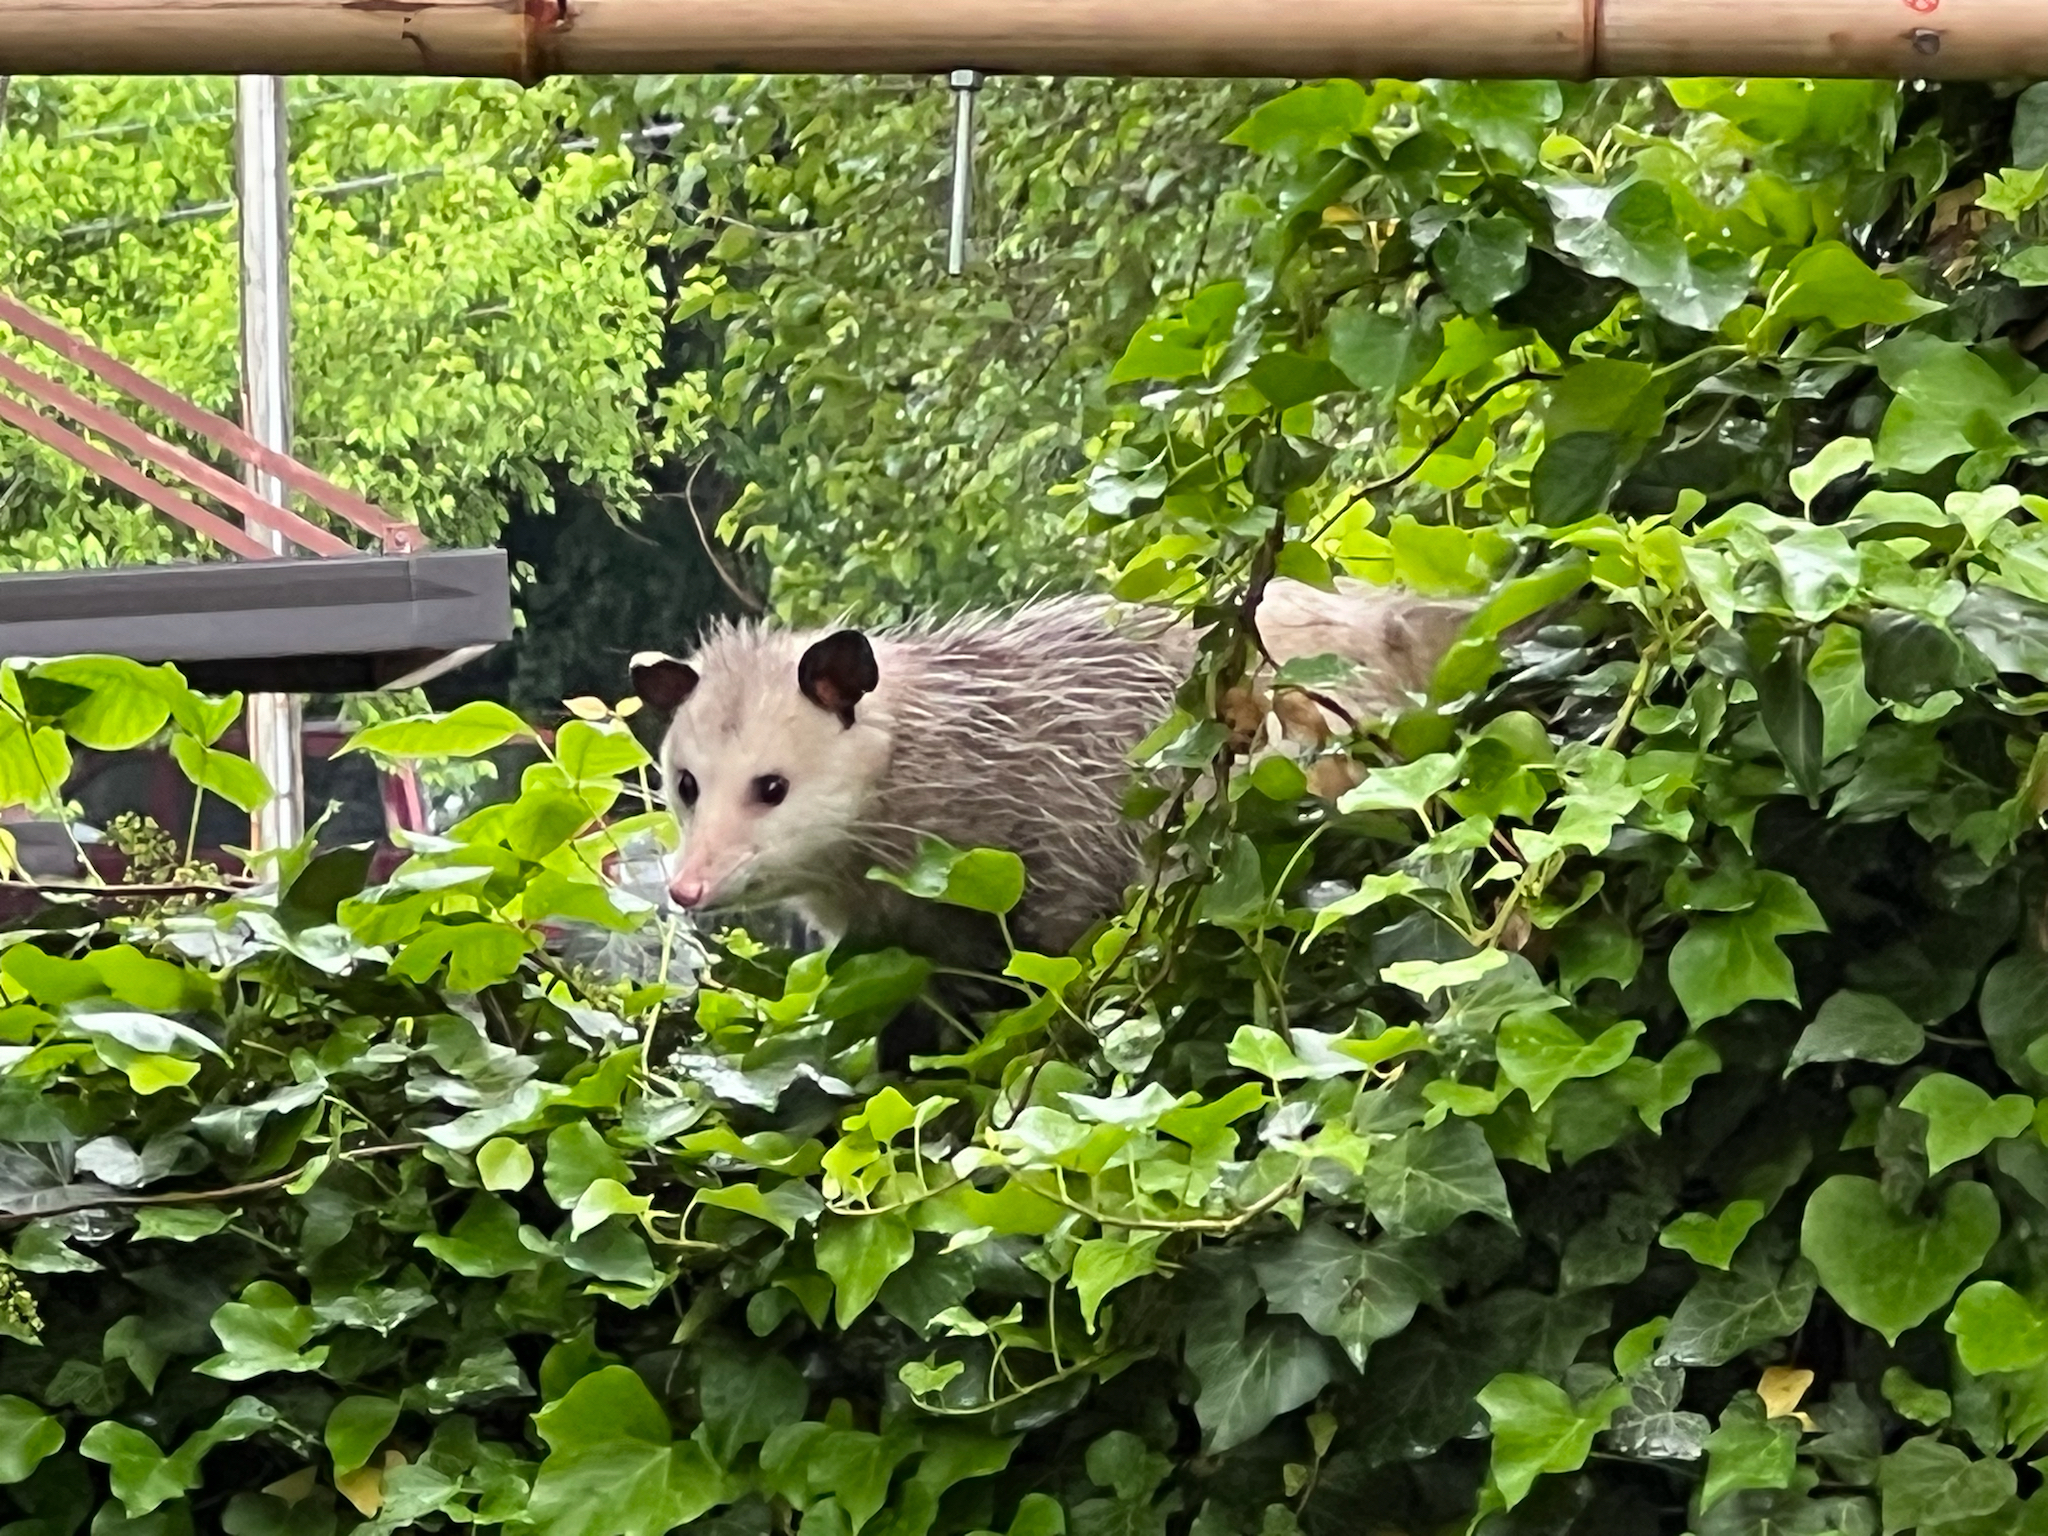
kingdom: Animalia
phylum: Chordata
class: Mammalia
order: Didelphimorphia
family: Didelphidae
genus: Didelphis
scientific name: Didelphis virginiana
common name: Virginia opossum
